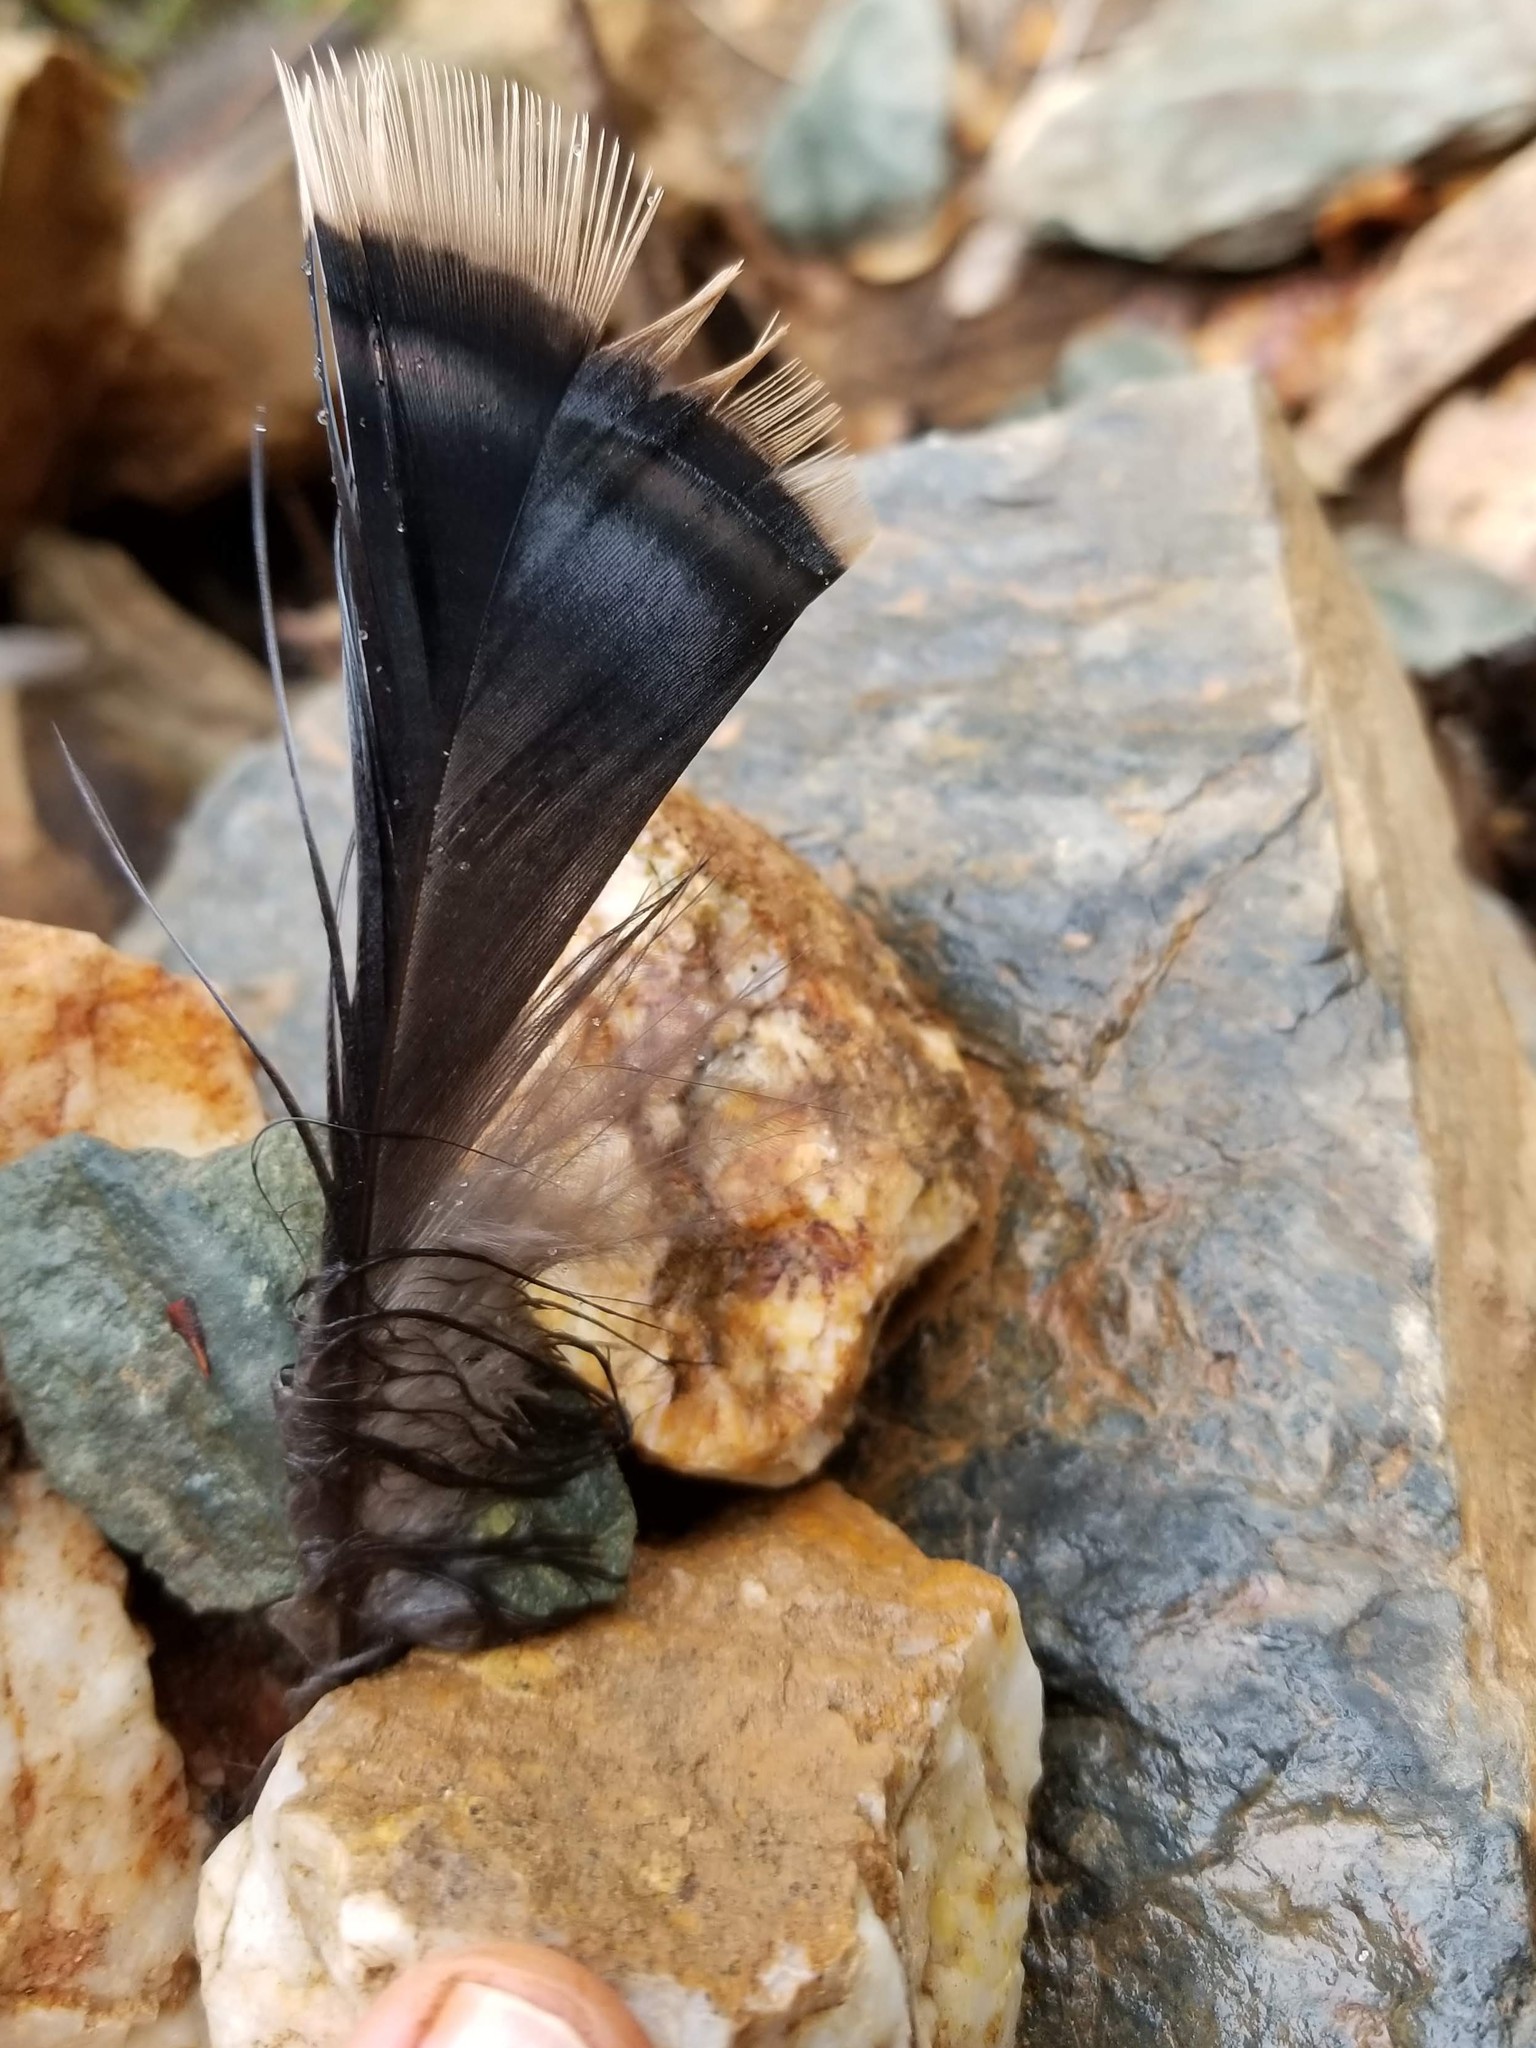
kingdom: Animalia
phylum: Chordata
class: Aves
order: Galliformes
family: Phasianidae
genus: Meleagris
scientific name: Meleagris gallopavo
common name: Wild turkey
